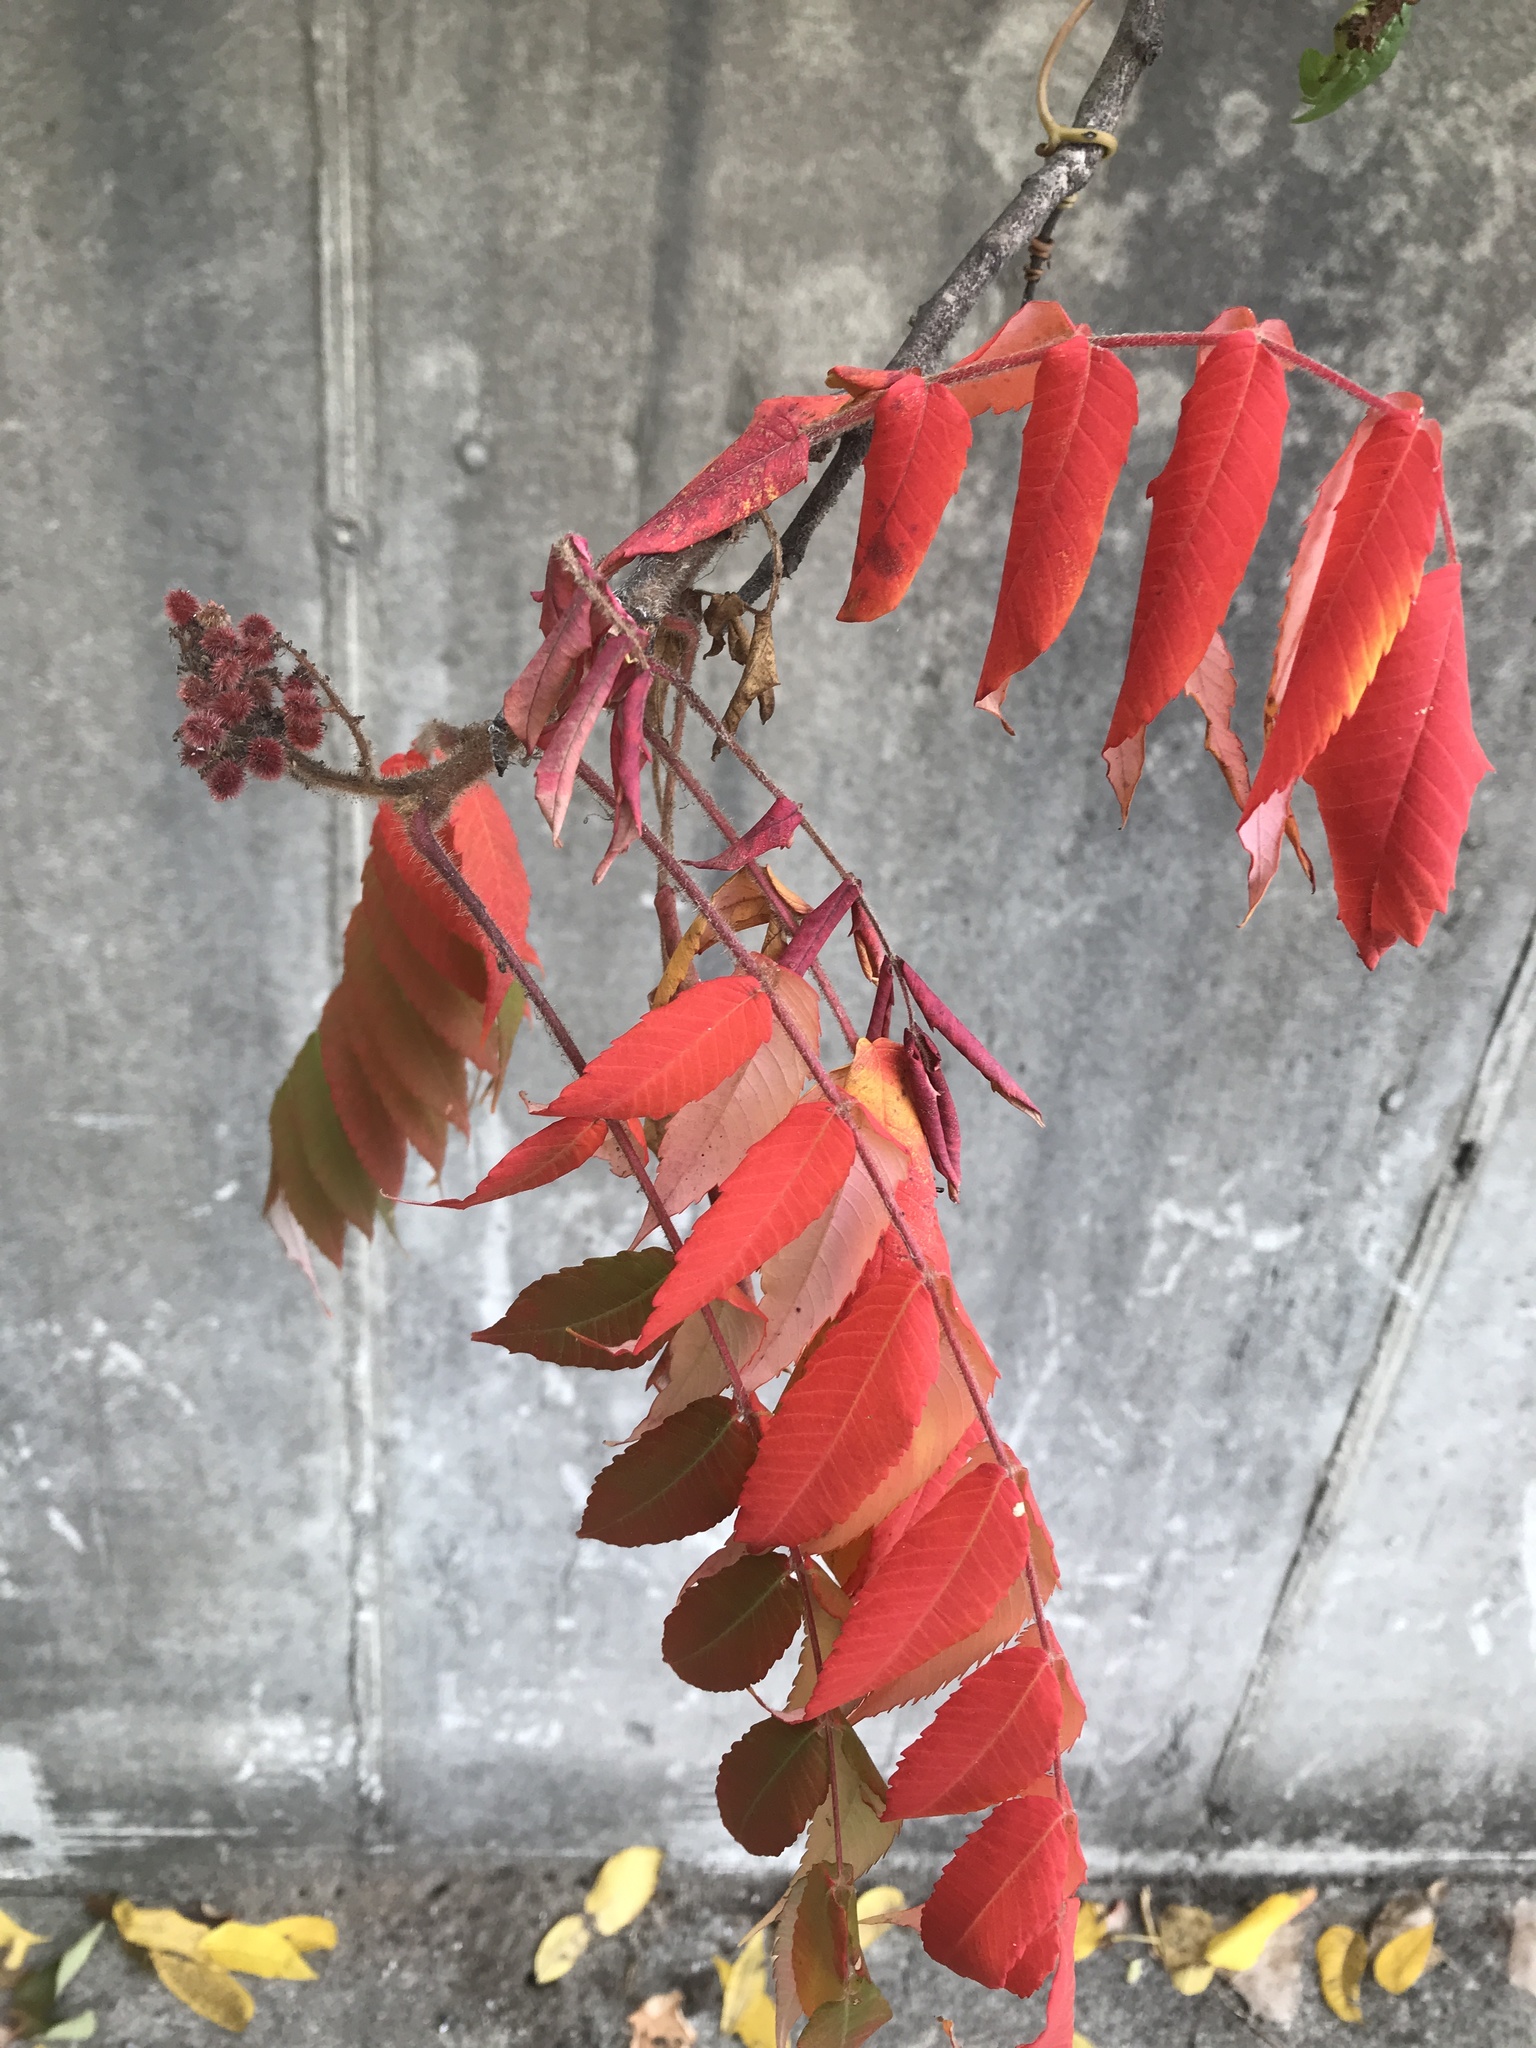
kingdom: Plantae
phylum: Tracheophyta
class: Magnoliopsida
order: Sapindales
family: Anacardiaceae
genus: Rhus
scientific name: Rhus typhina
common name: Staghorn sumac
